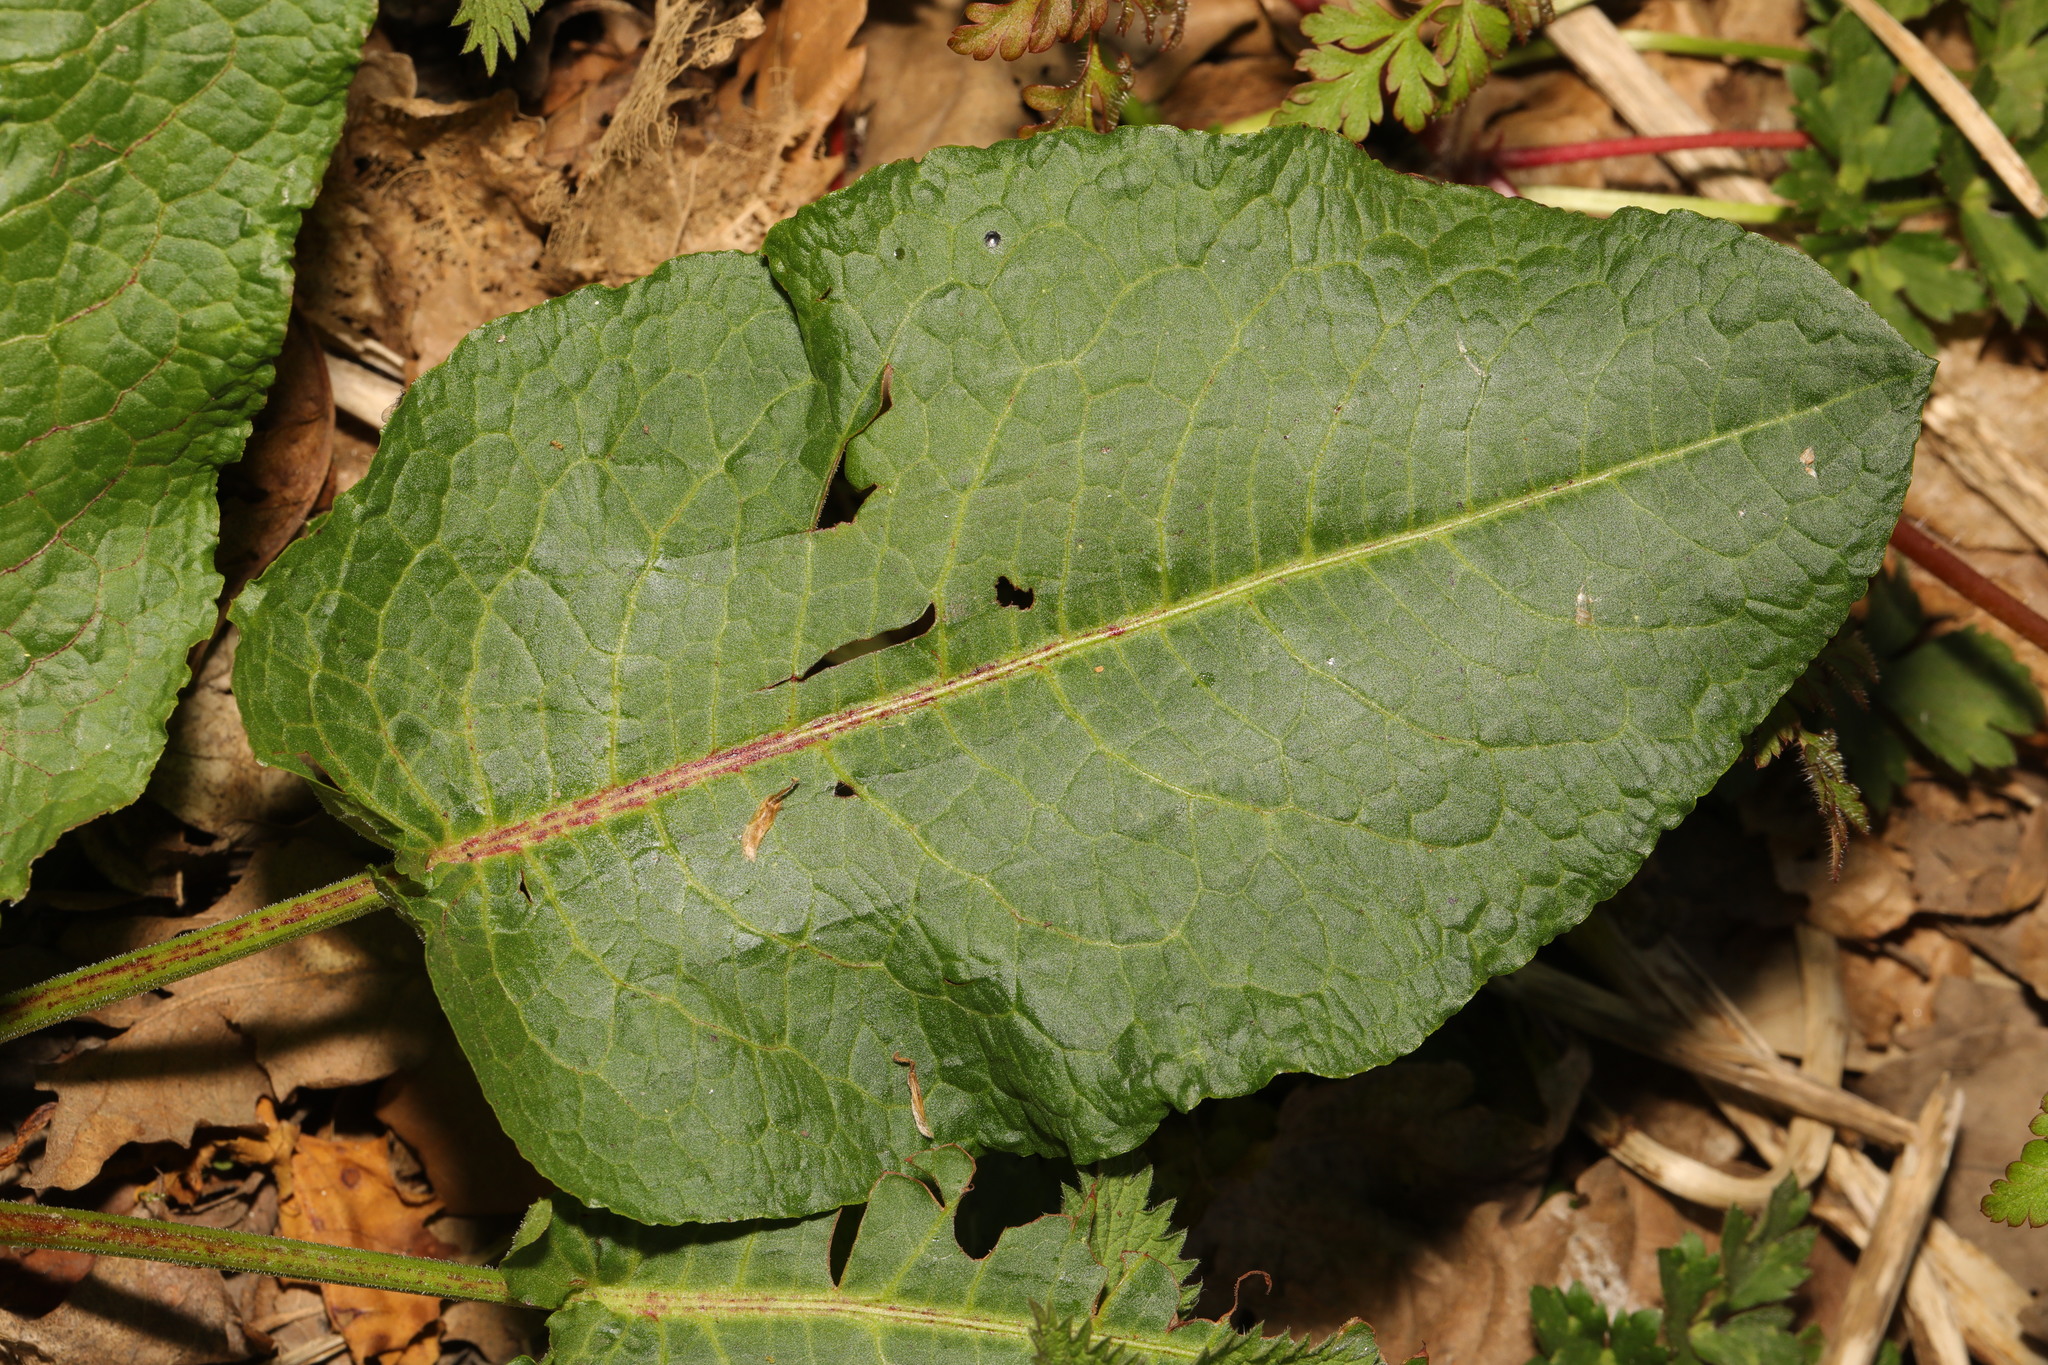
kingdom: Plantae
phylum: Tracheophyta
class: Magnoliopsida
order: Caryophyllales
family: Polygonaceae
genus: Rumex
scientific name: Rumex obtusifolius
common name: Bitter dock
